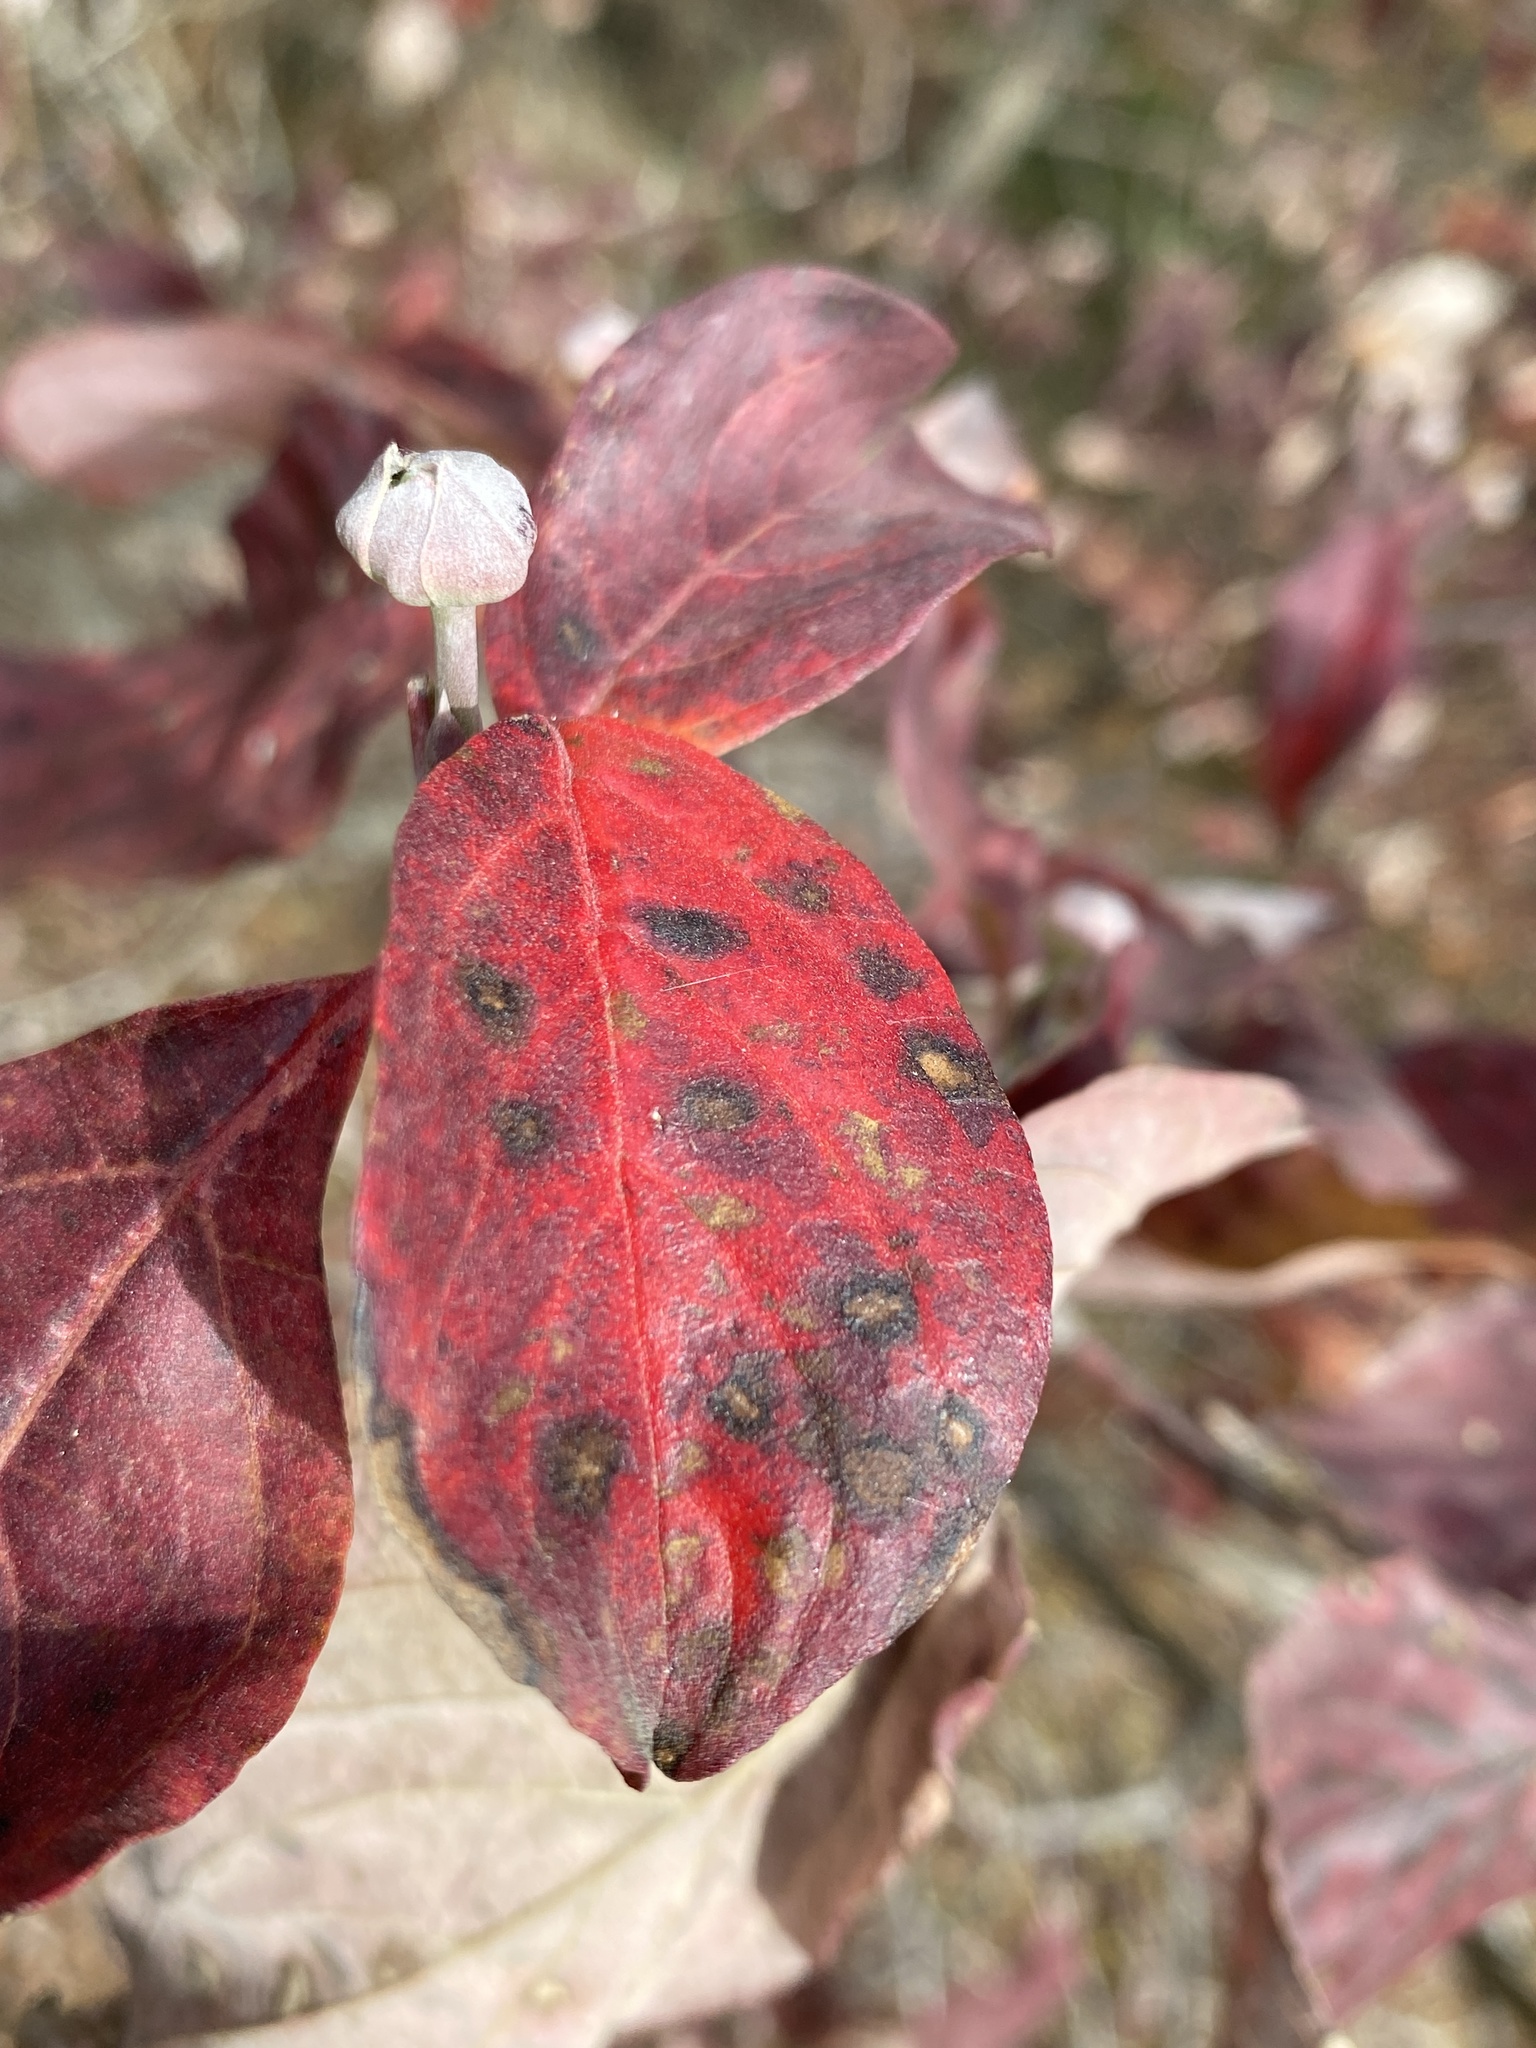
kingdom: Plantae
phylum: Tracheophyta
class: Magnoliopsida
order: Cornales
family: Cornaceae
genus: Cornus
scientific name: Cornus florida
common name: Flowering dogwood
